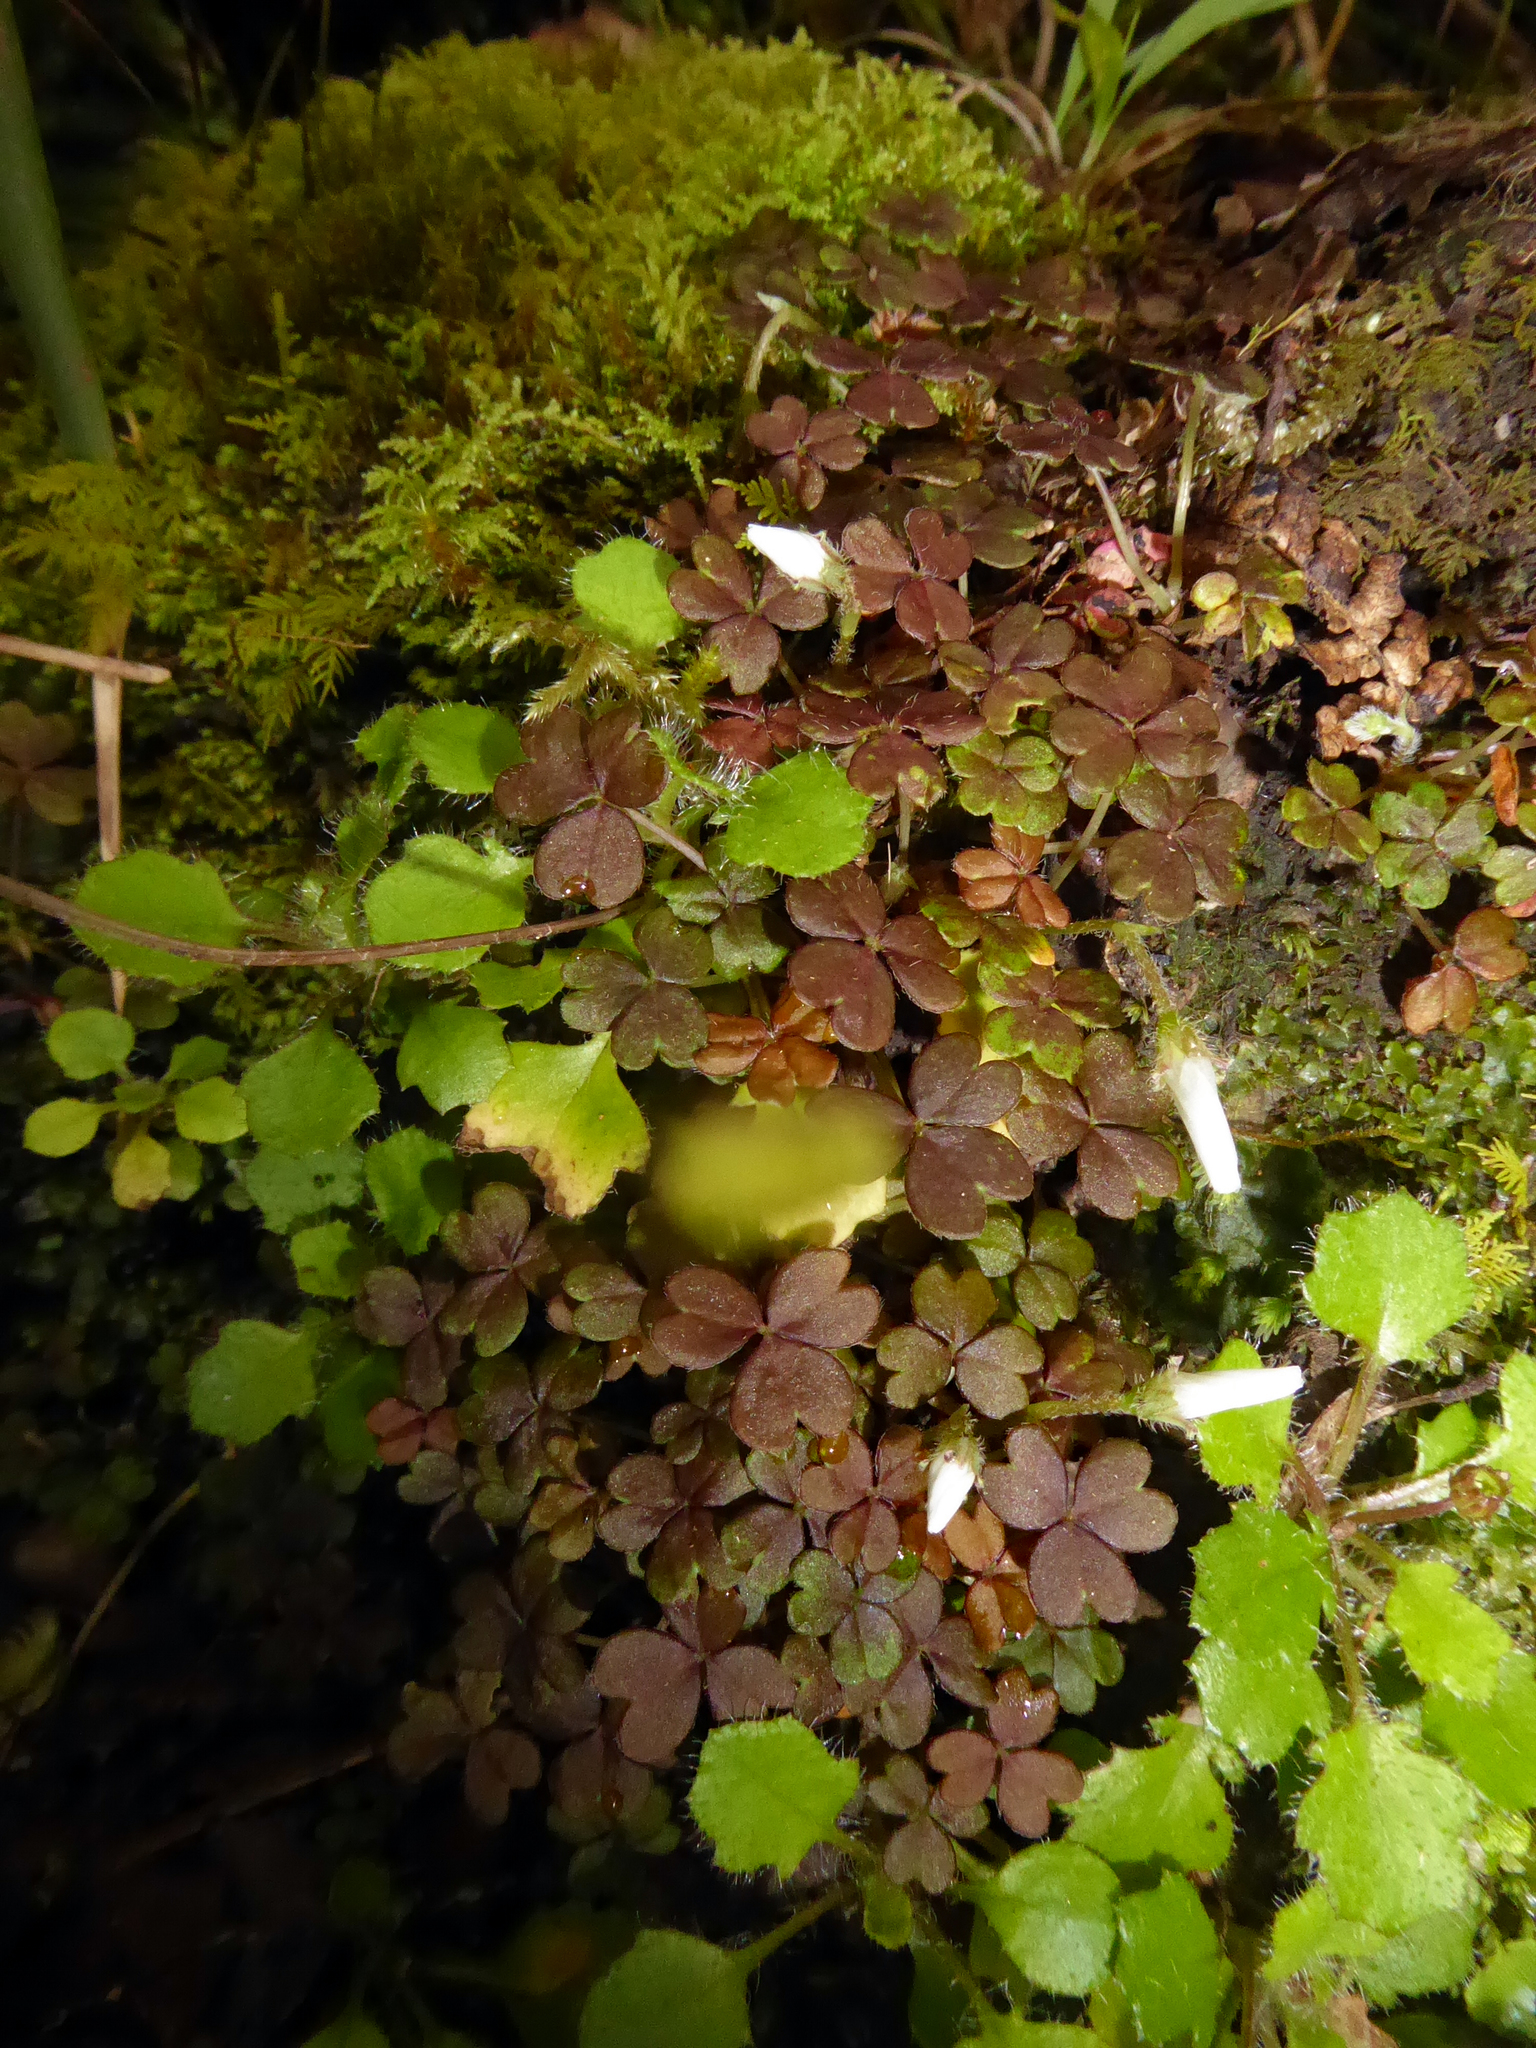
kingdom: Plantae
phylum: Tracheophyta
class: Magnoliopsida
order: Oxalidales
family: Oxalidaceae
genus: Oxalis
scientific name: Oxalis magellanica
